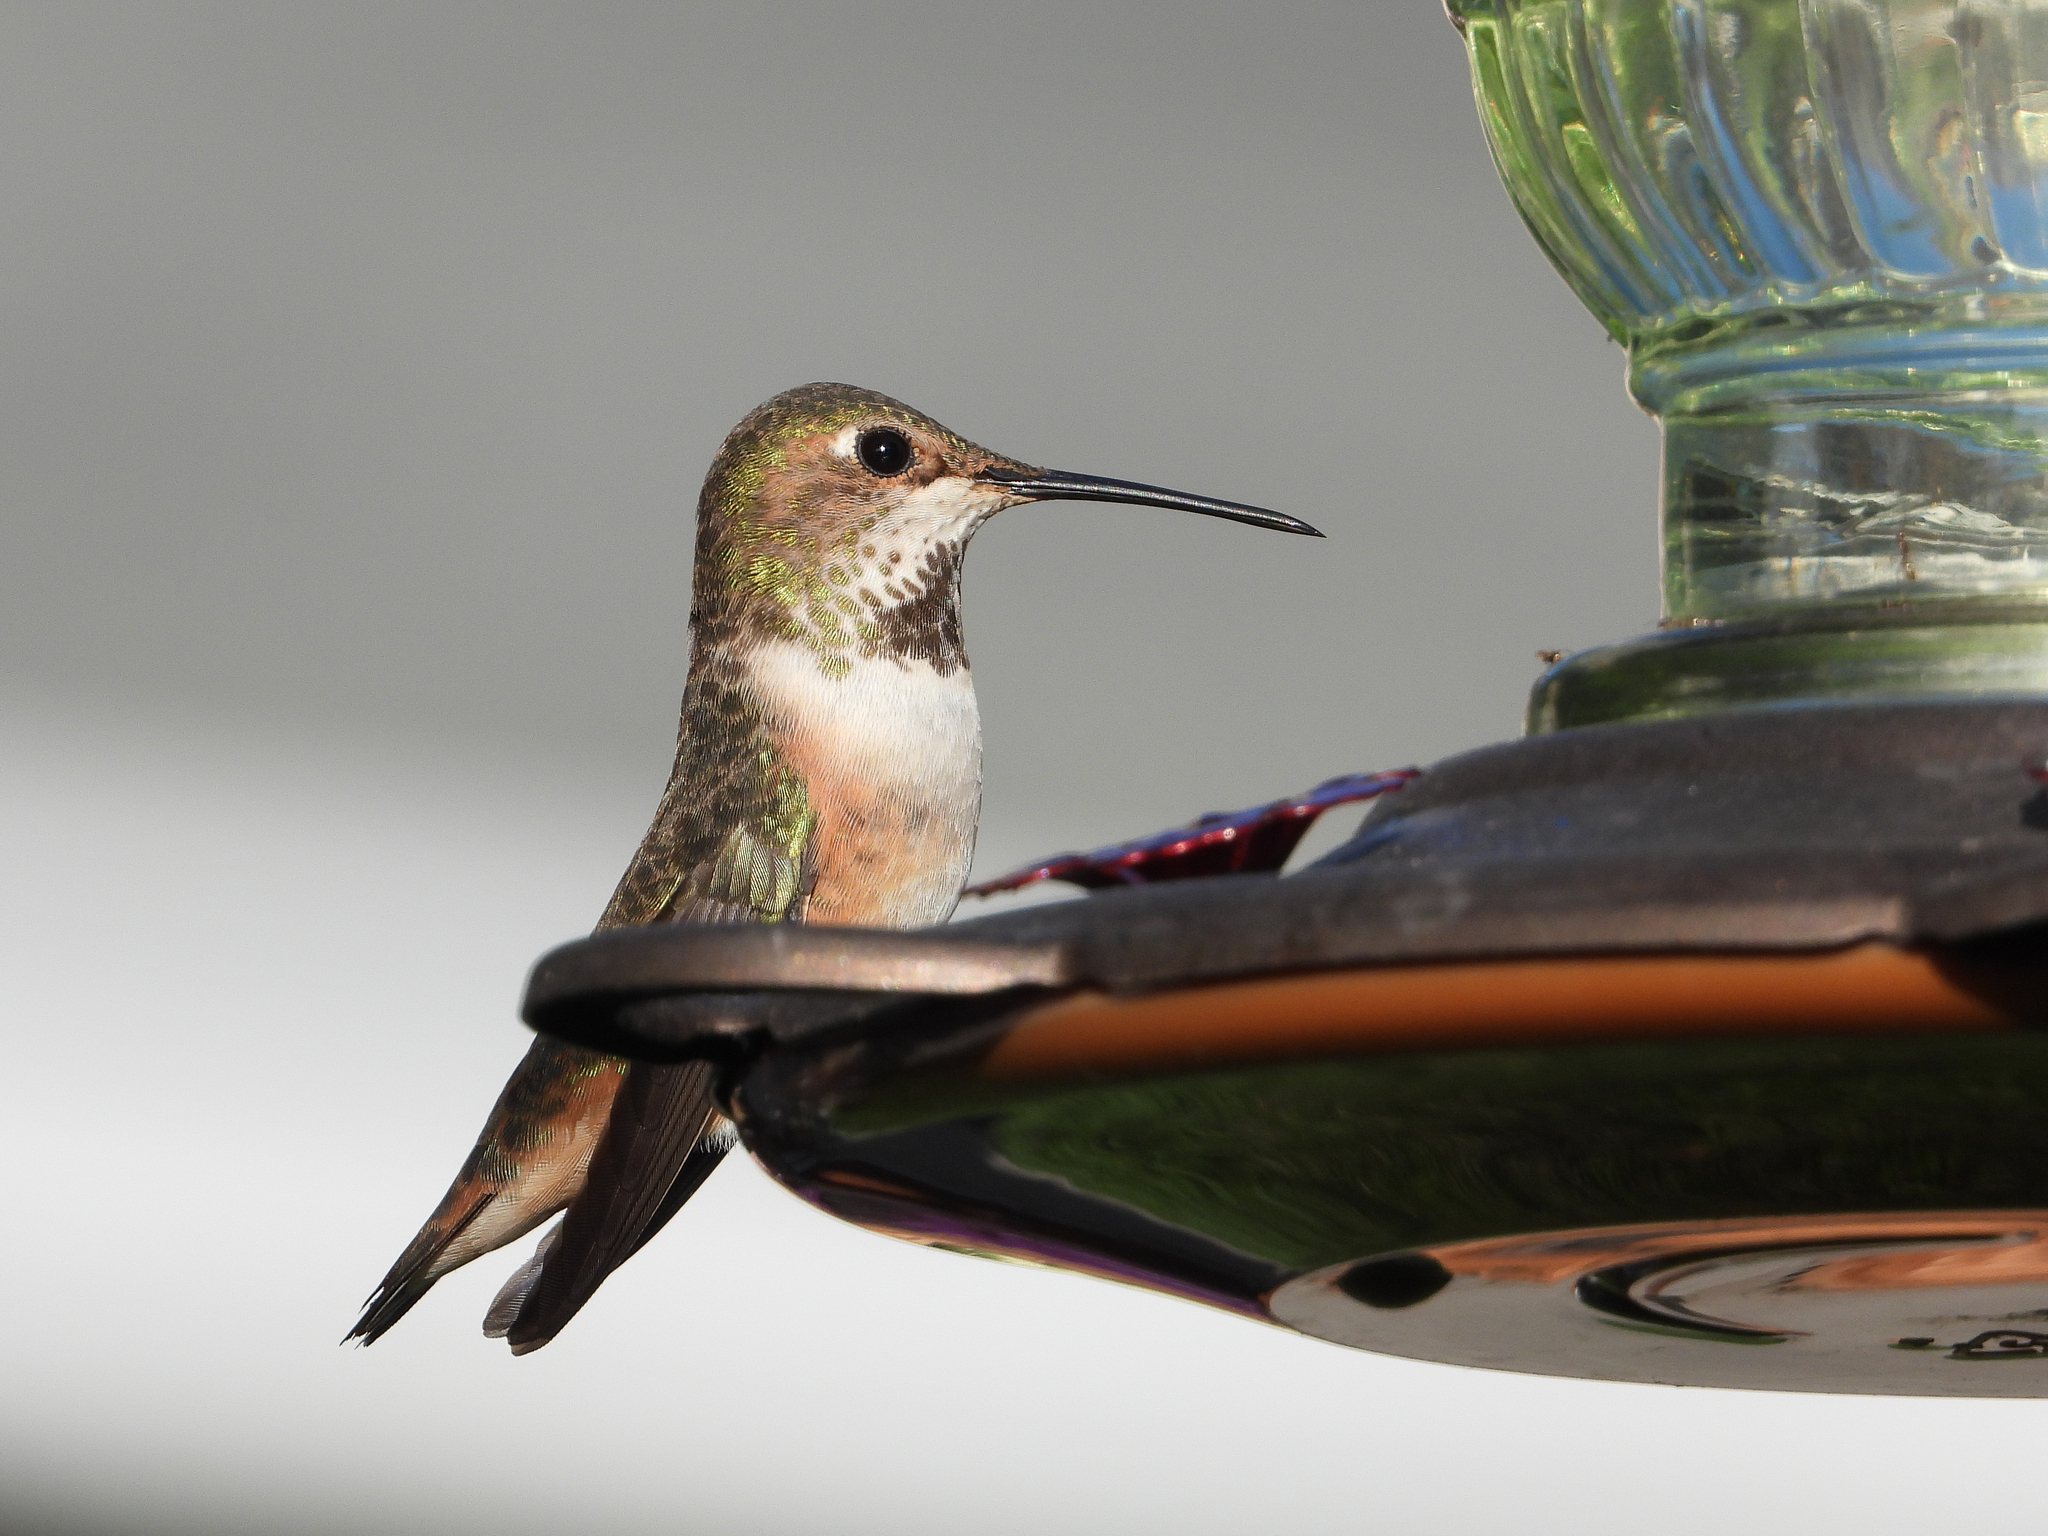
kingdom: Animalia
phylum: Chordata
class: Aves
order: Apodiformes
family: Trochilidae
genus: Selasphorus
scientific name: Selasphorus sasin
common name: Allen's hummingbird
